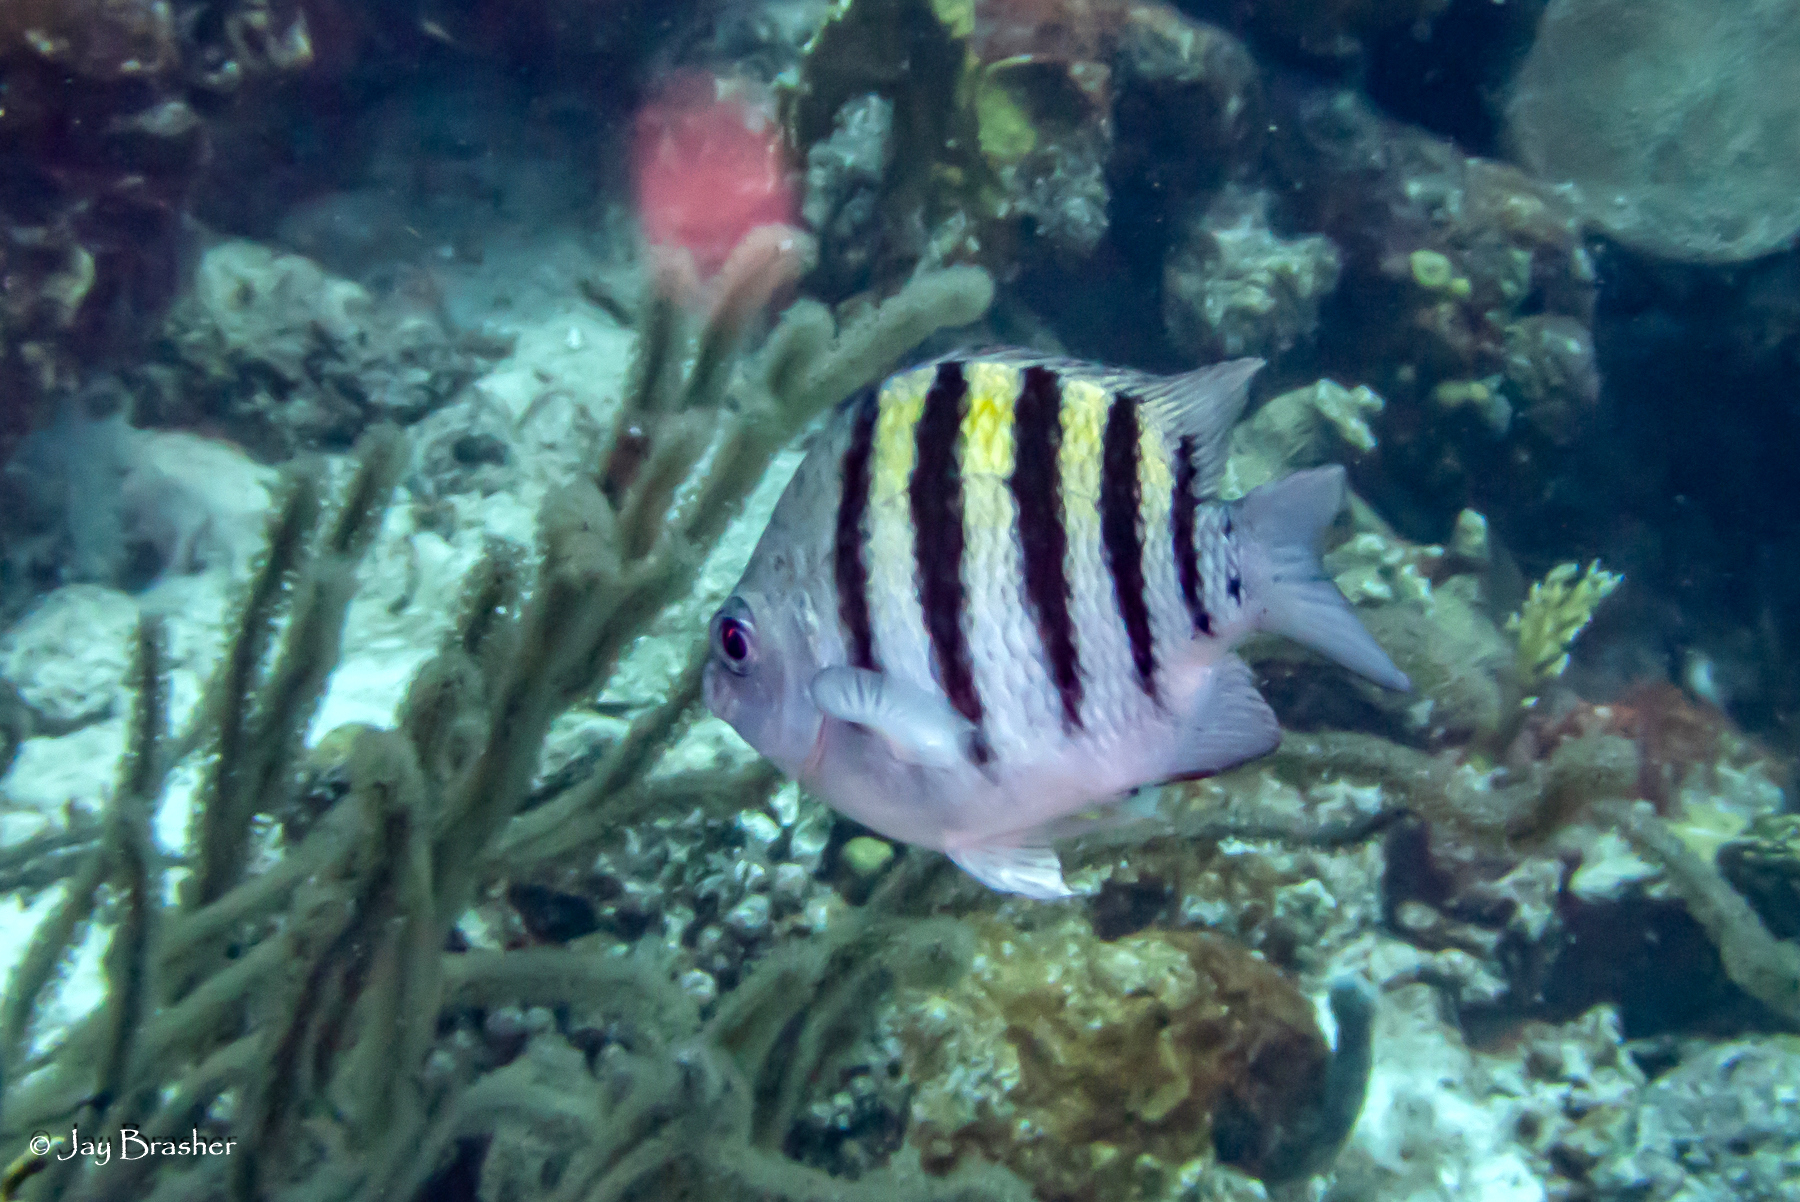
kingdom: Animalia
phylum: Chordata
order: Perciformes
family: Pomacentridae
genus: Abudefduf
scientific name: Abudefduf saxatilis
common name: Sergeant major
